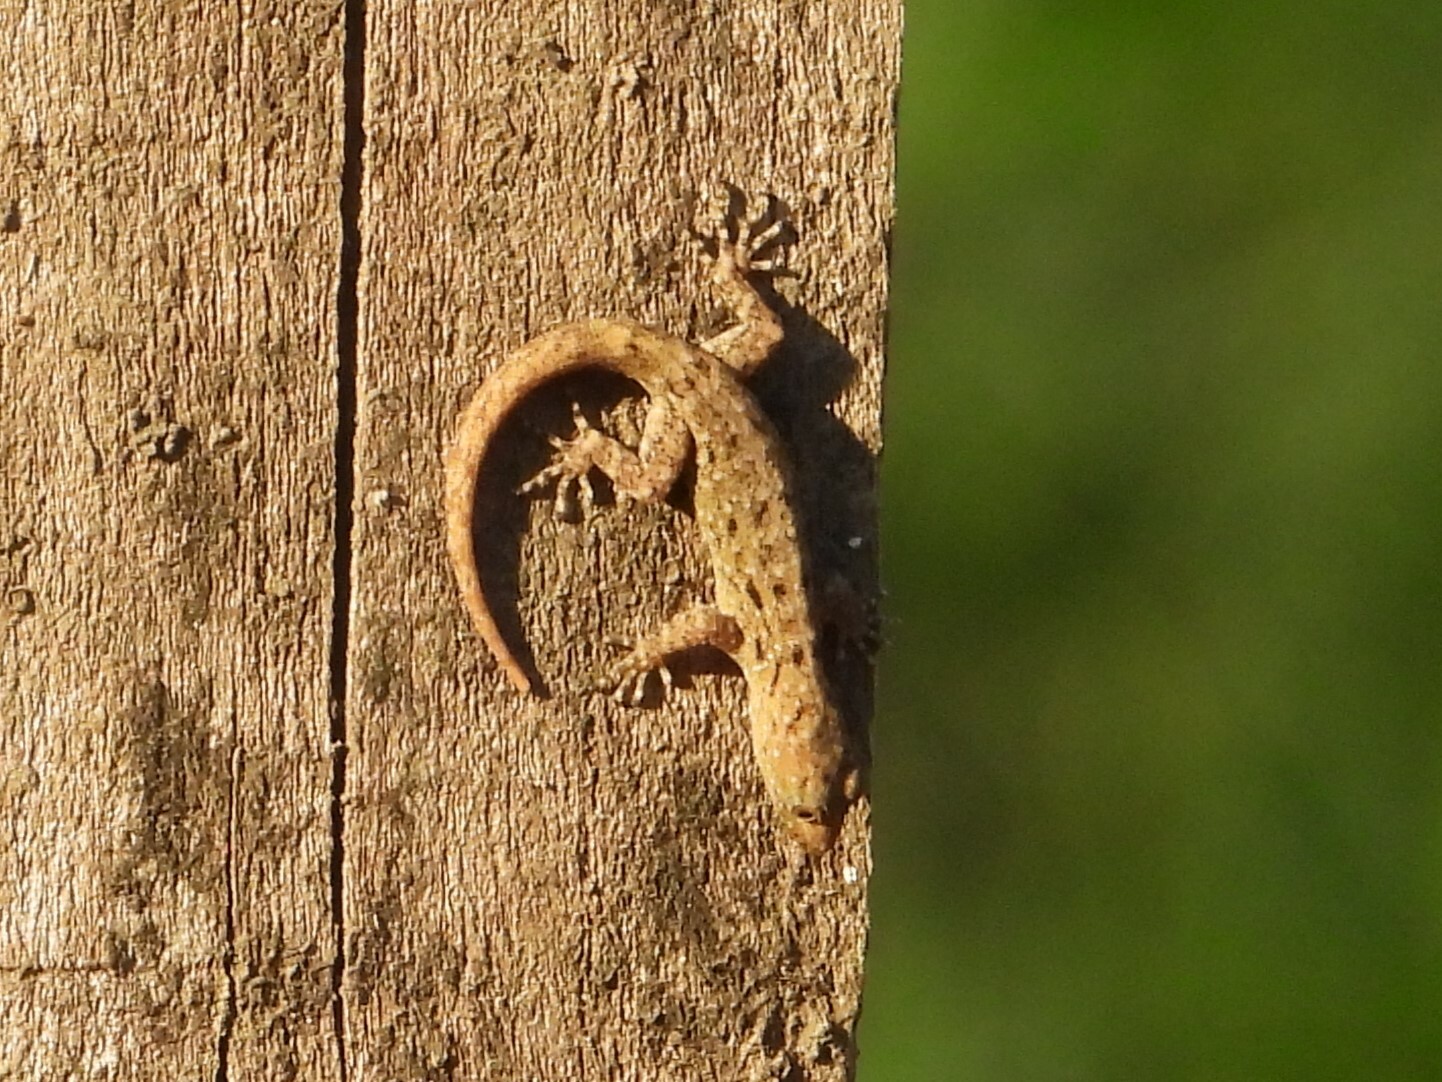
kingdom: Animalia
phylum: Chordata
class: Squamata
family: Sphaerodactylidae
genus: Gonatodes
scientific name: Gonatodes albogularis
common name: Yellow-headed gecko
